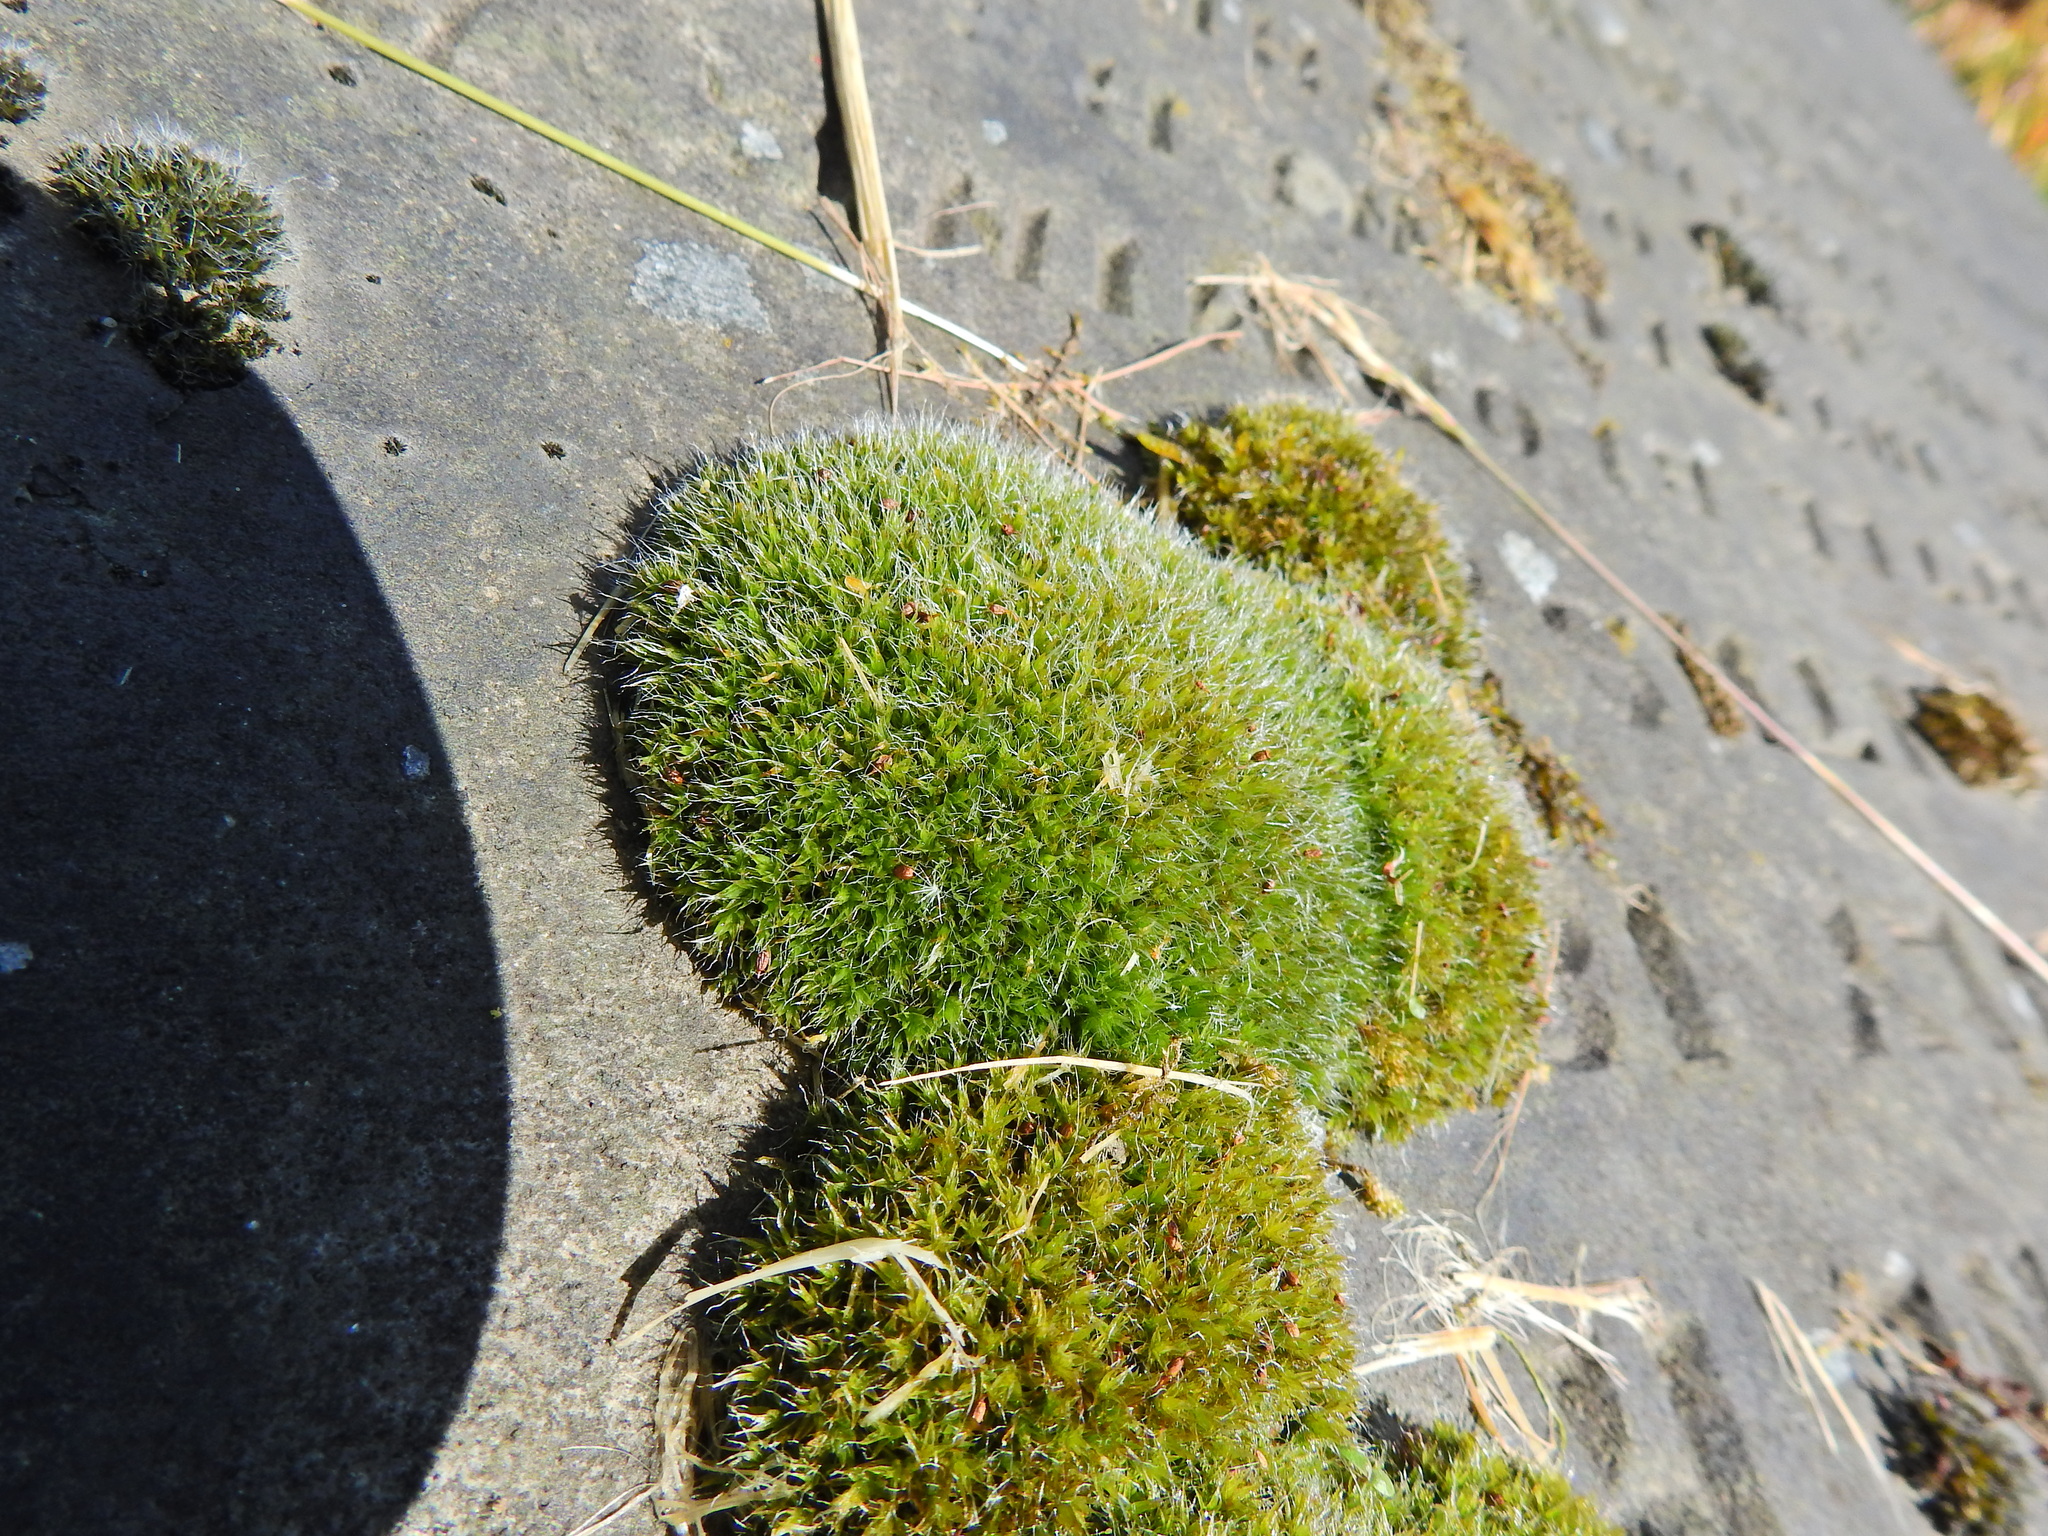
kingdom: Plantae
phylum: Bryophyta
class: Bryopsida
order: Grimmiales
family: Grimmiaceae
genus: Grimmia
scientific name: Grimmia pulvinata
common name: Grey-cushioned grimmia
